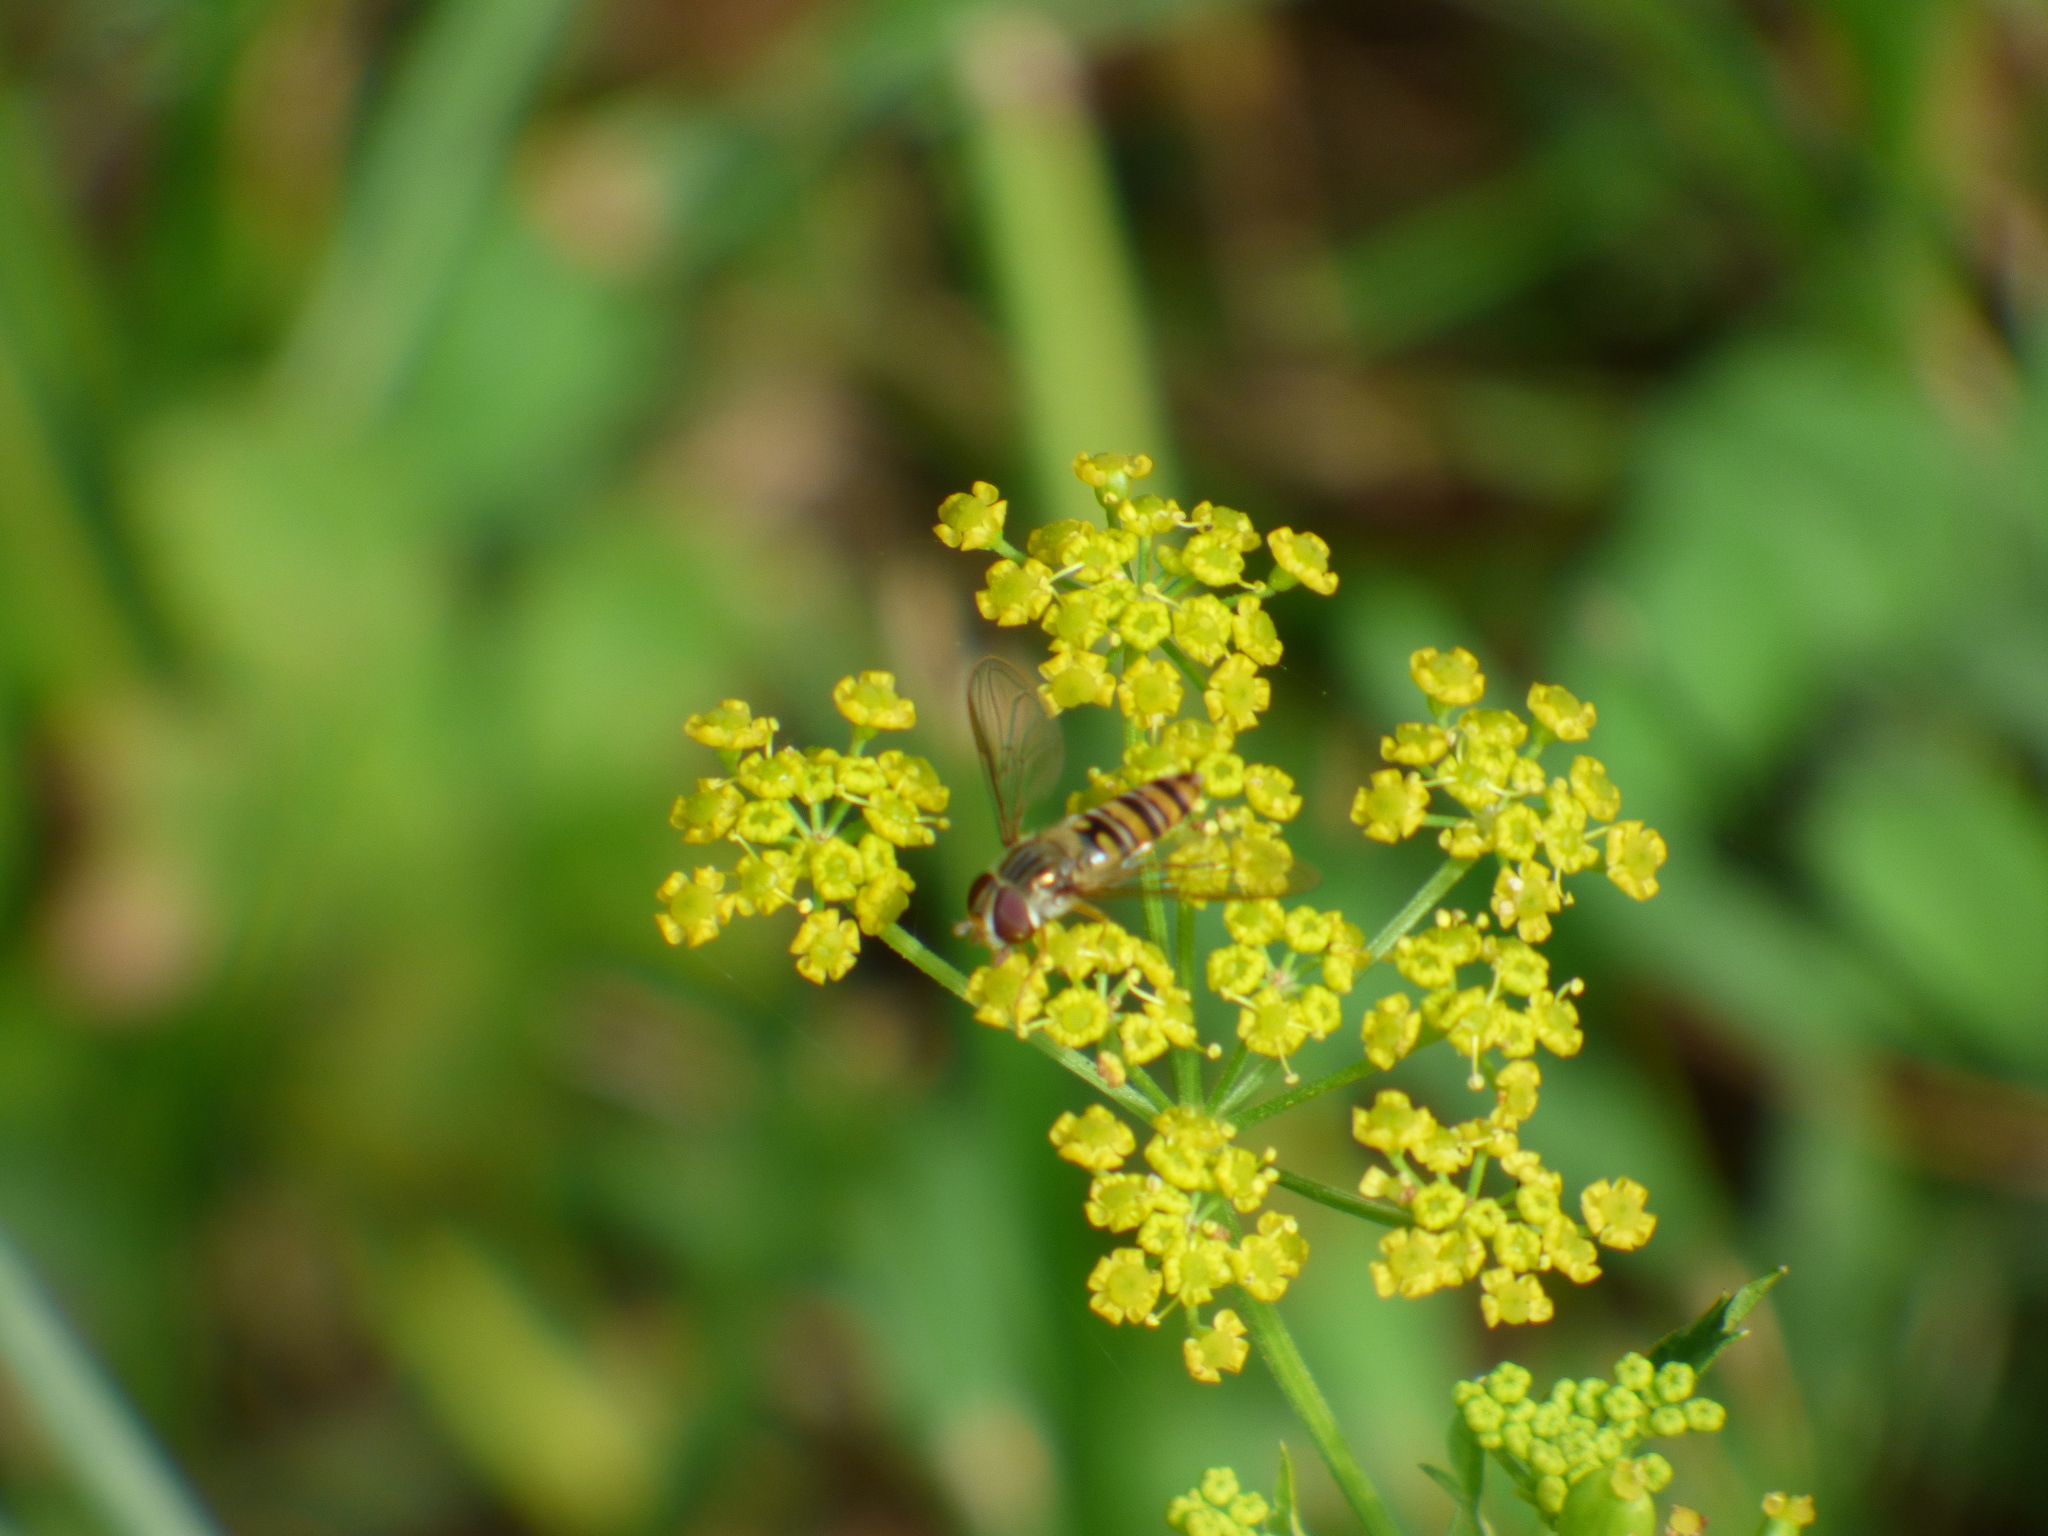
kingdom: Animalia
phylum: Arthropoda
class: Insecta
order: Diptera
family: Syrphidae
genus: Episyrphus
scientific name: Episyrphus balteatus
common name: Marmalade hoverfly
